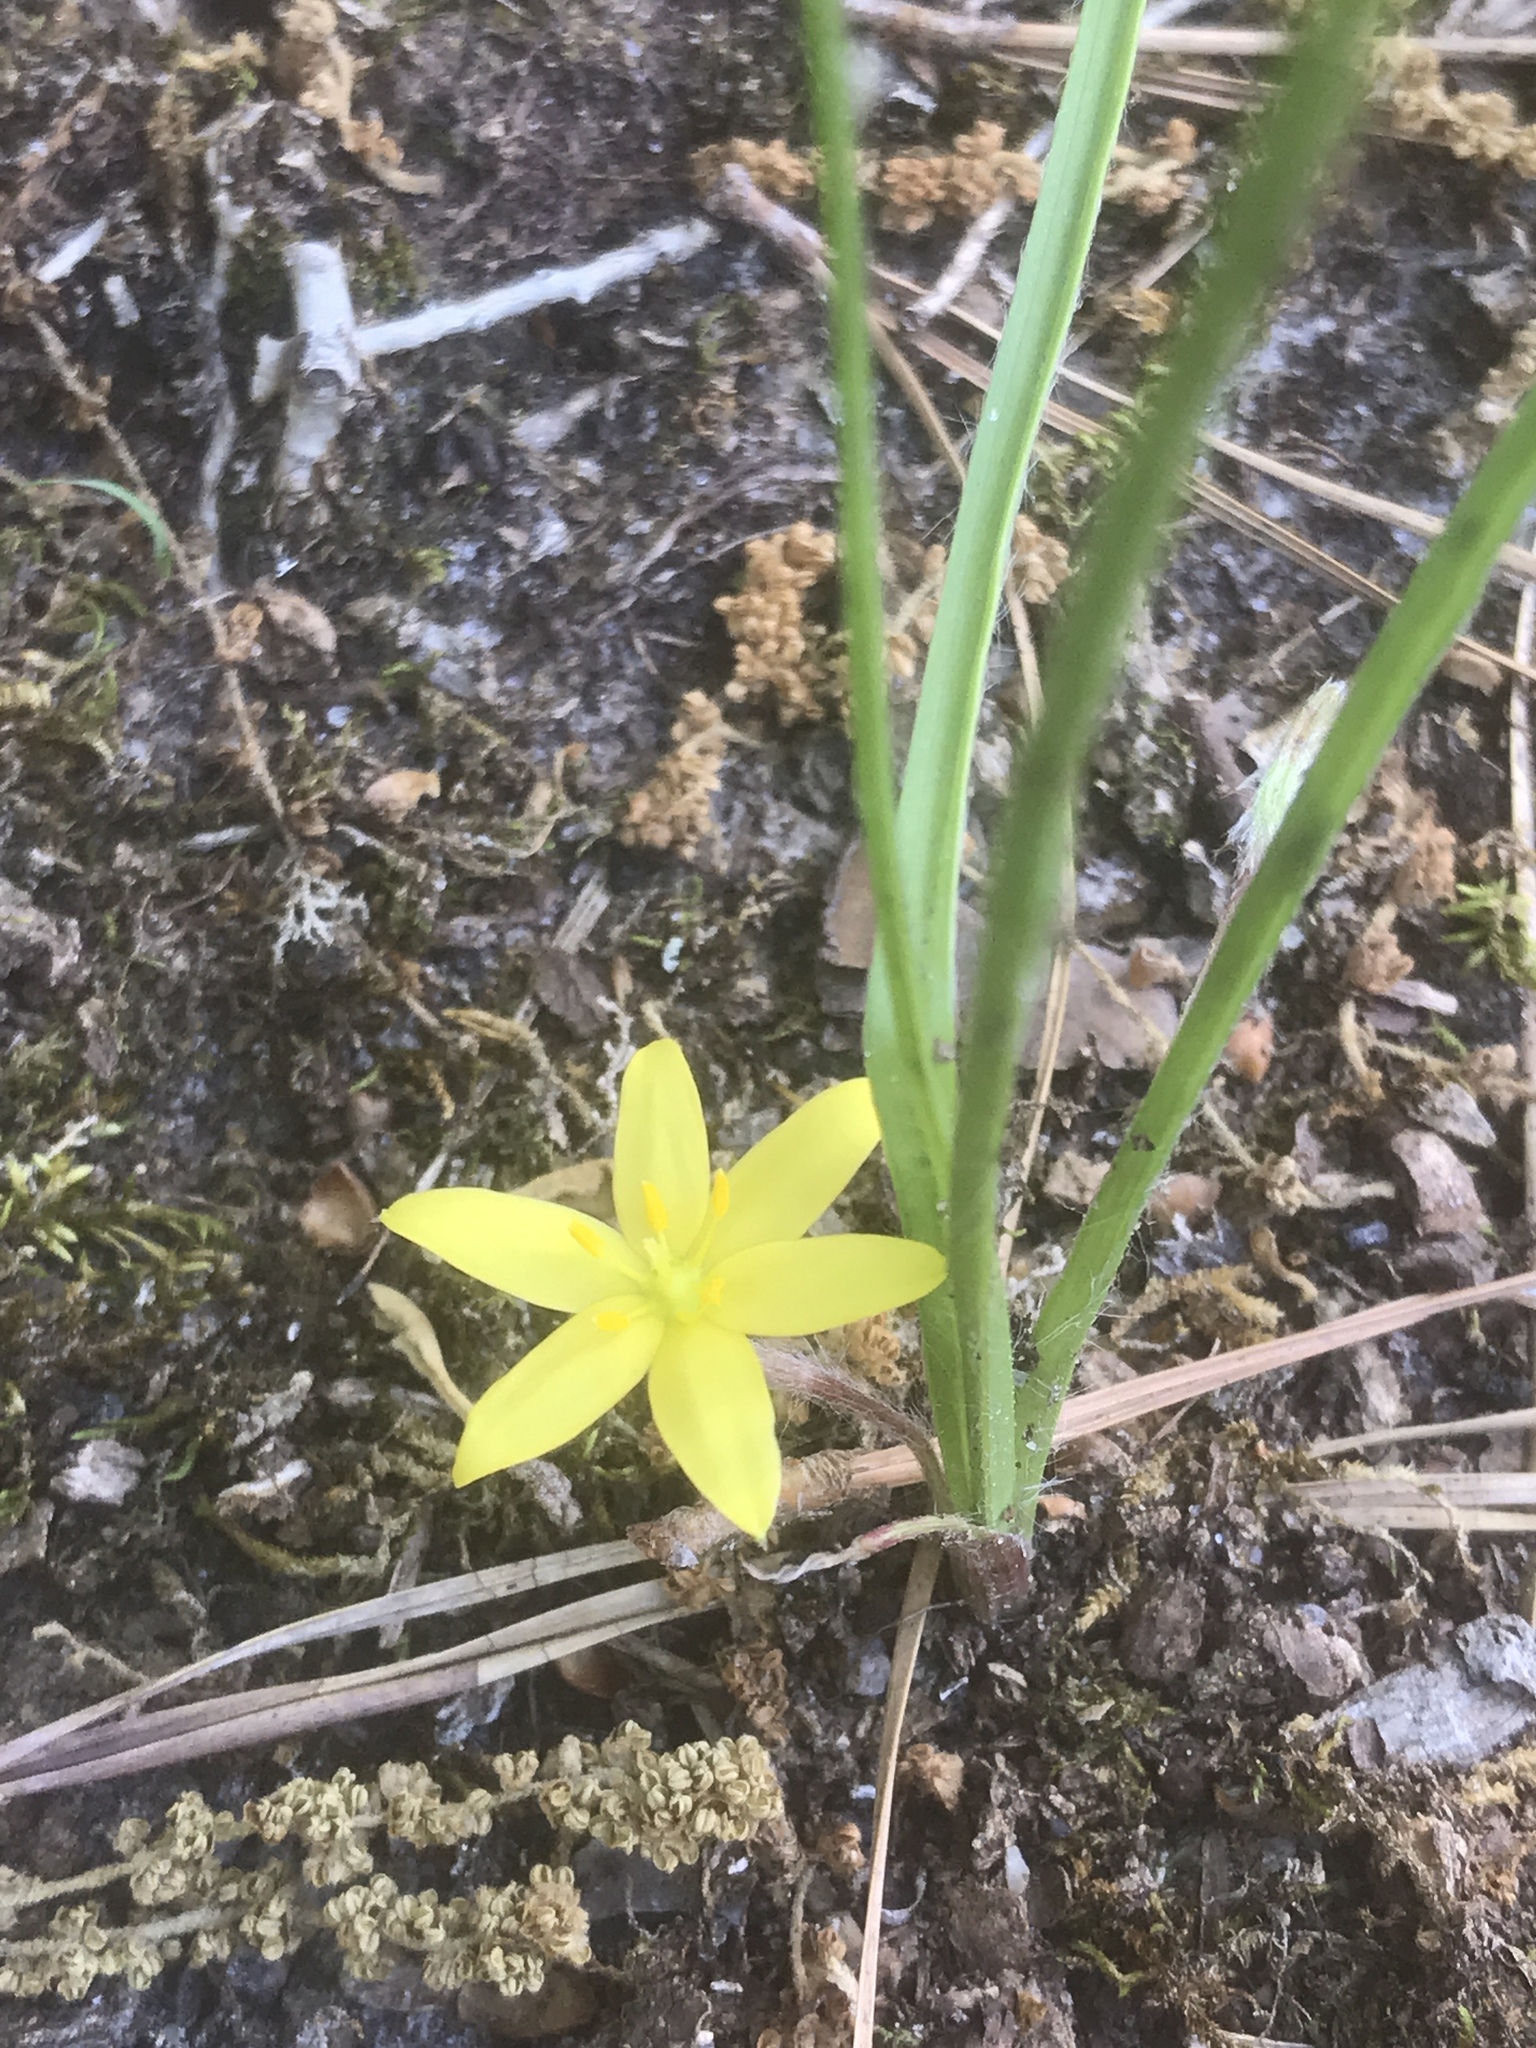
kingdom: Plantae
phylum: Tracheophyta
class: Liliopsida
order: Asparagales
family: Hypoxidaceae
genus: Hypoxis
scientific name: Hypoxis hirsuta
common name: Common goldstar
